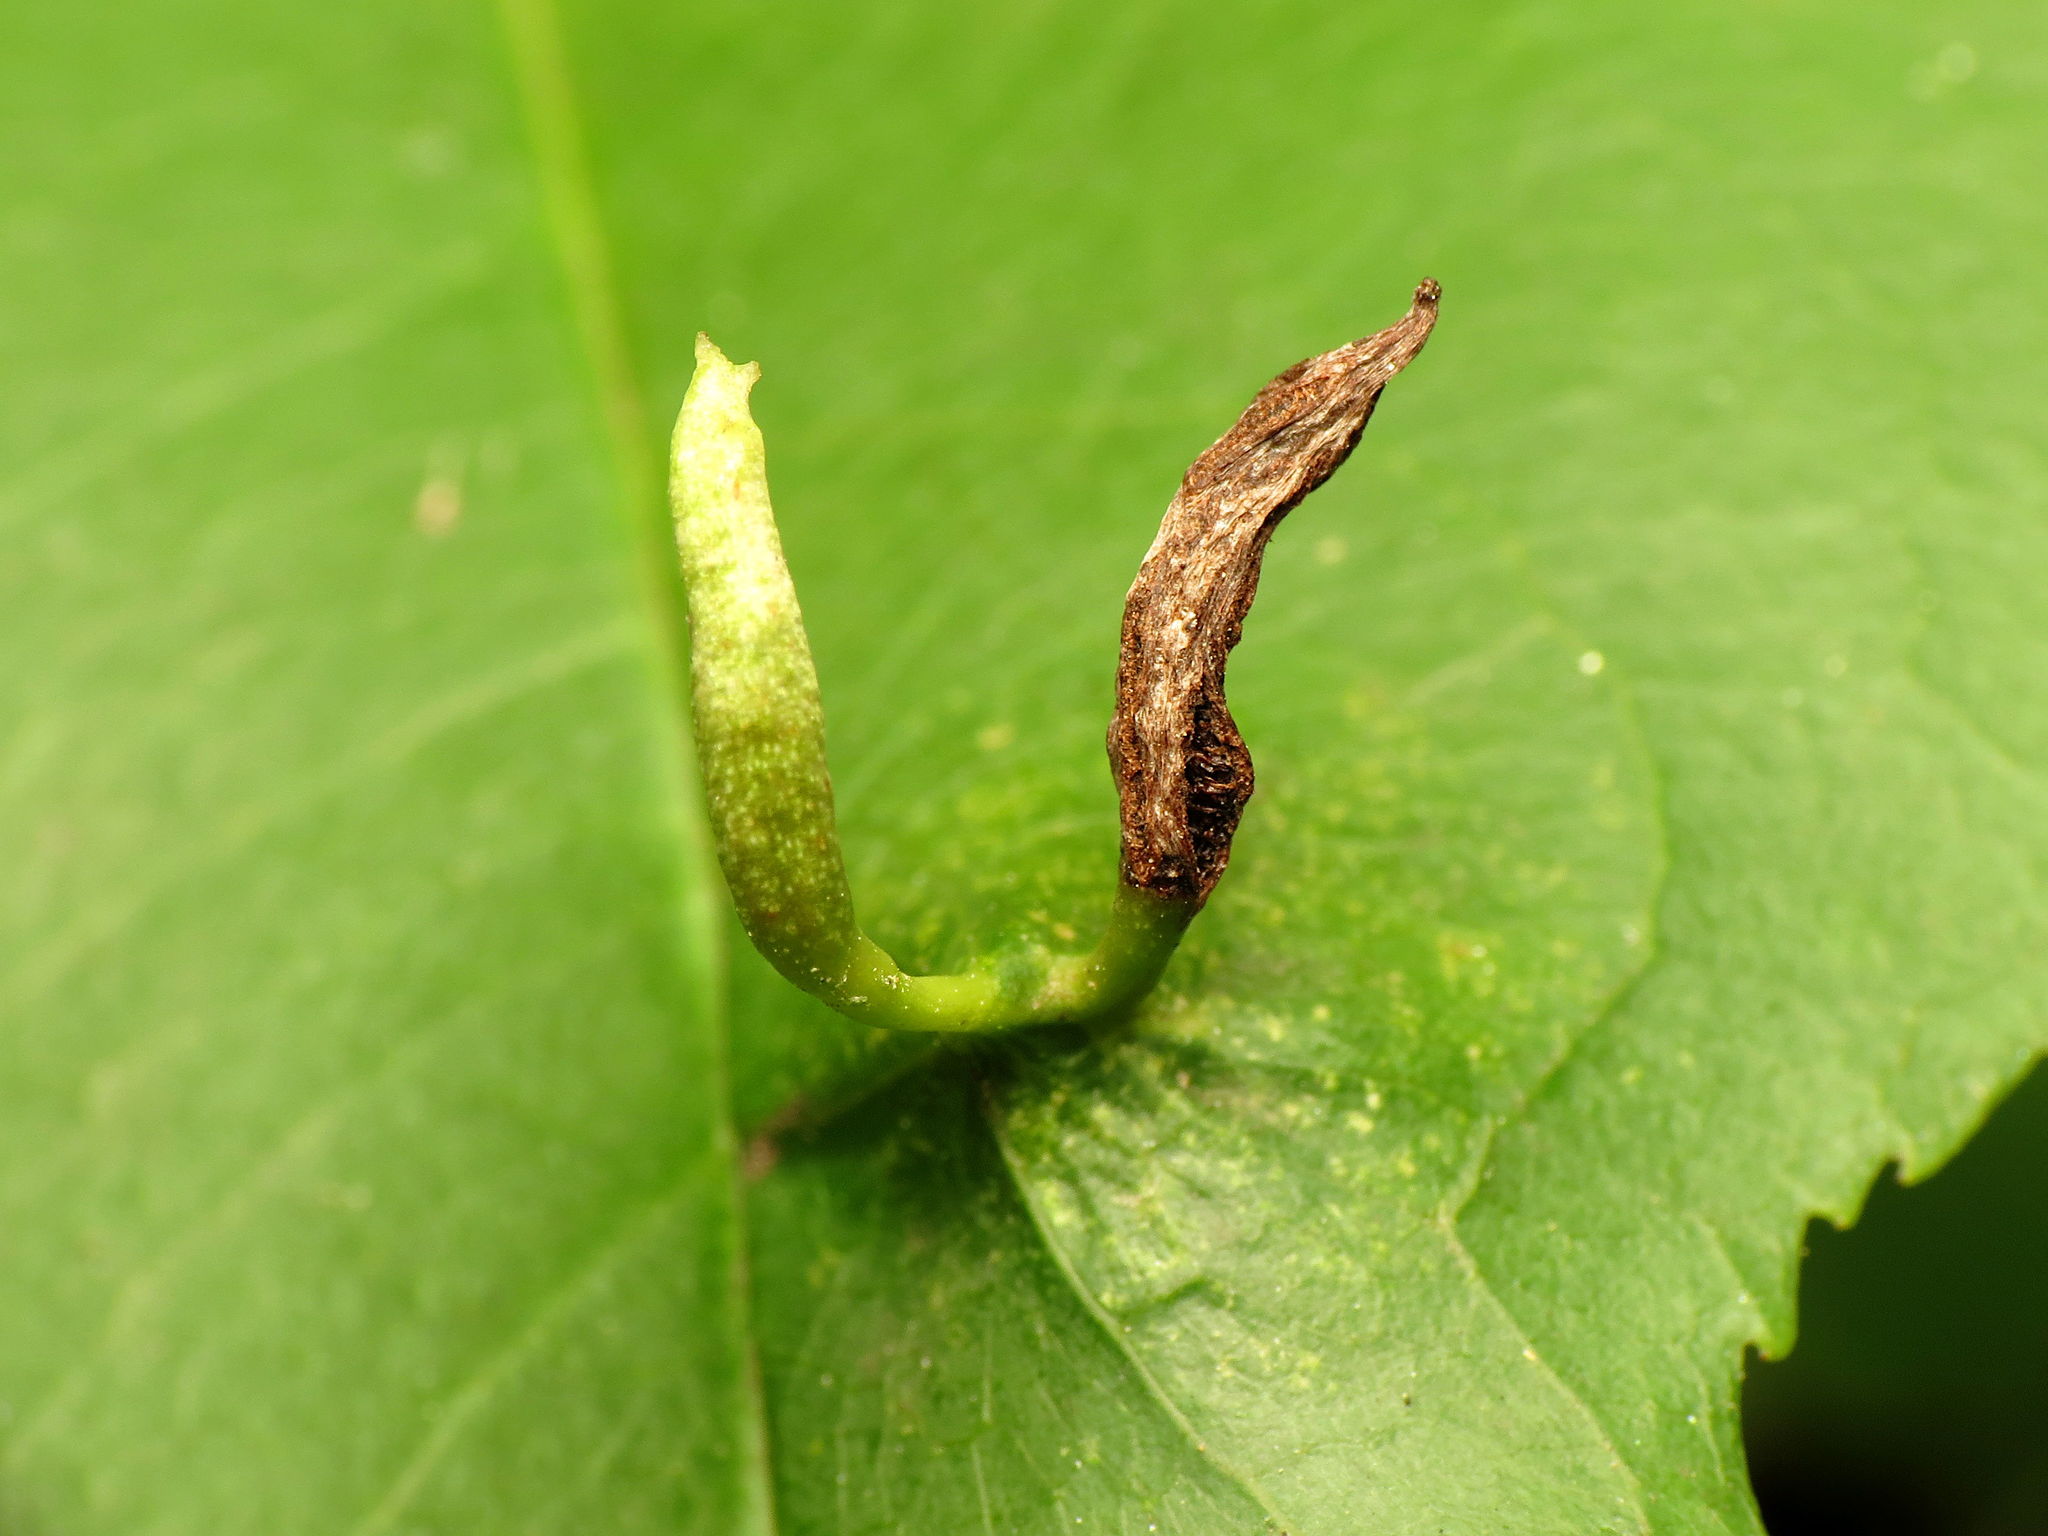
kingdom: Animalia
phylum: Arthropoda
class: Arachnida
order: Trombidiformes
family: Eriophyidae
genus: Eriophyes
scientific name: Eriophyes
